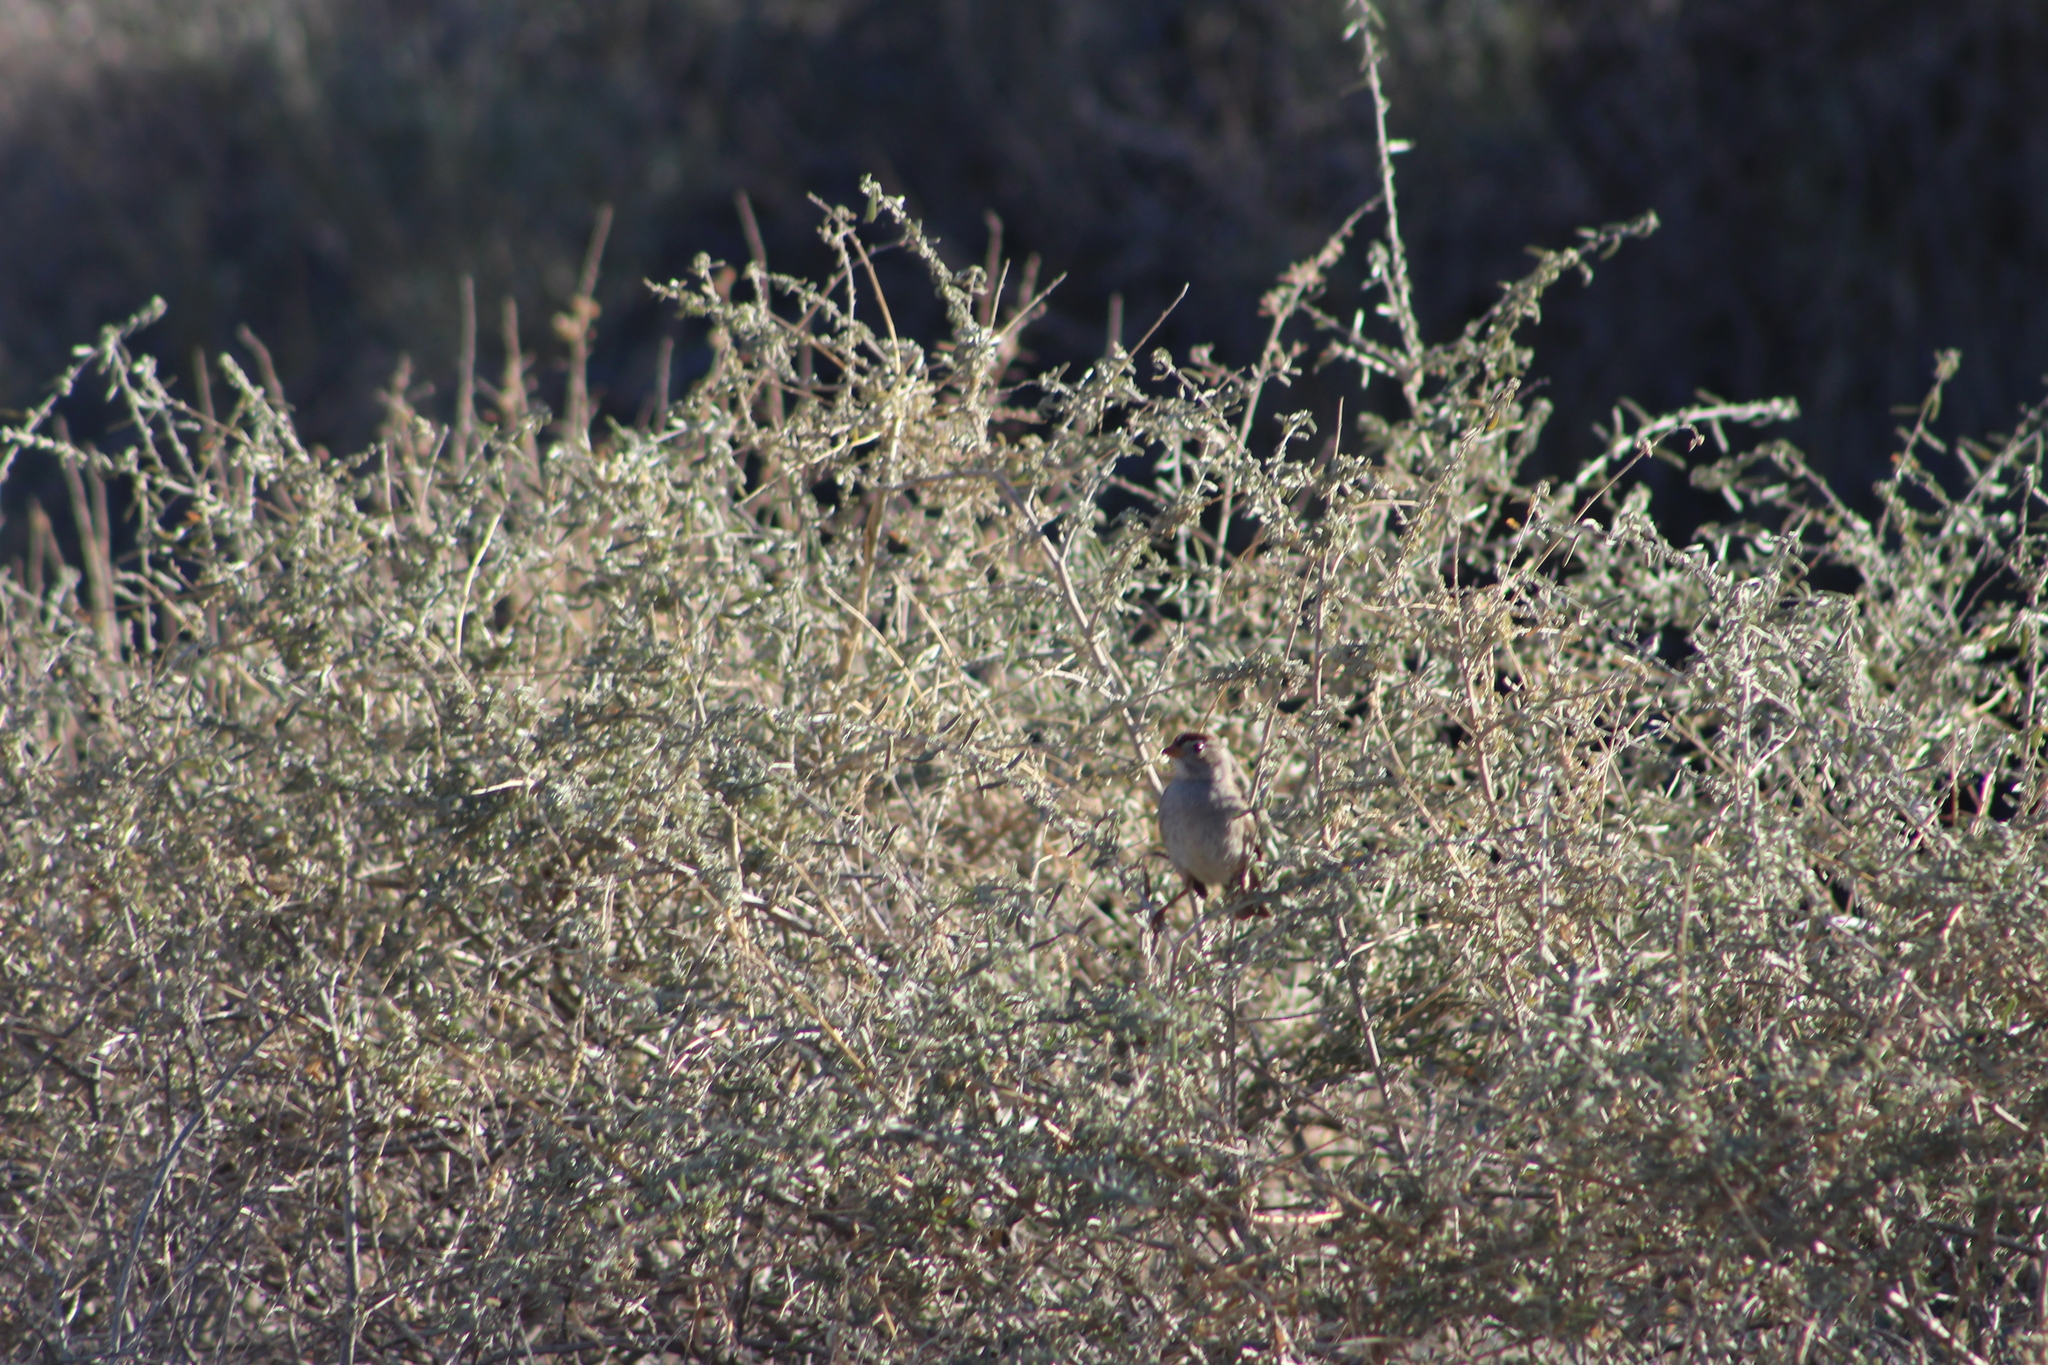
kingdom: Animalia
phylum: Chordata
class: Aves
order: Passeriformes
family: Passerellidae
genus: Zonotrichia
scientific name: Zonotrichia leucophrys
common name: White-crowned sparrow
